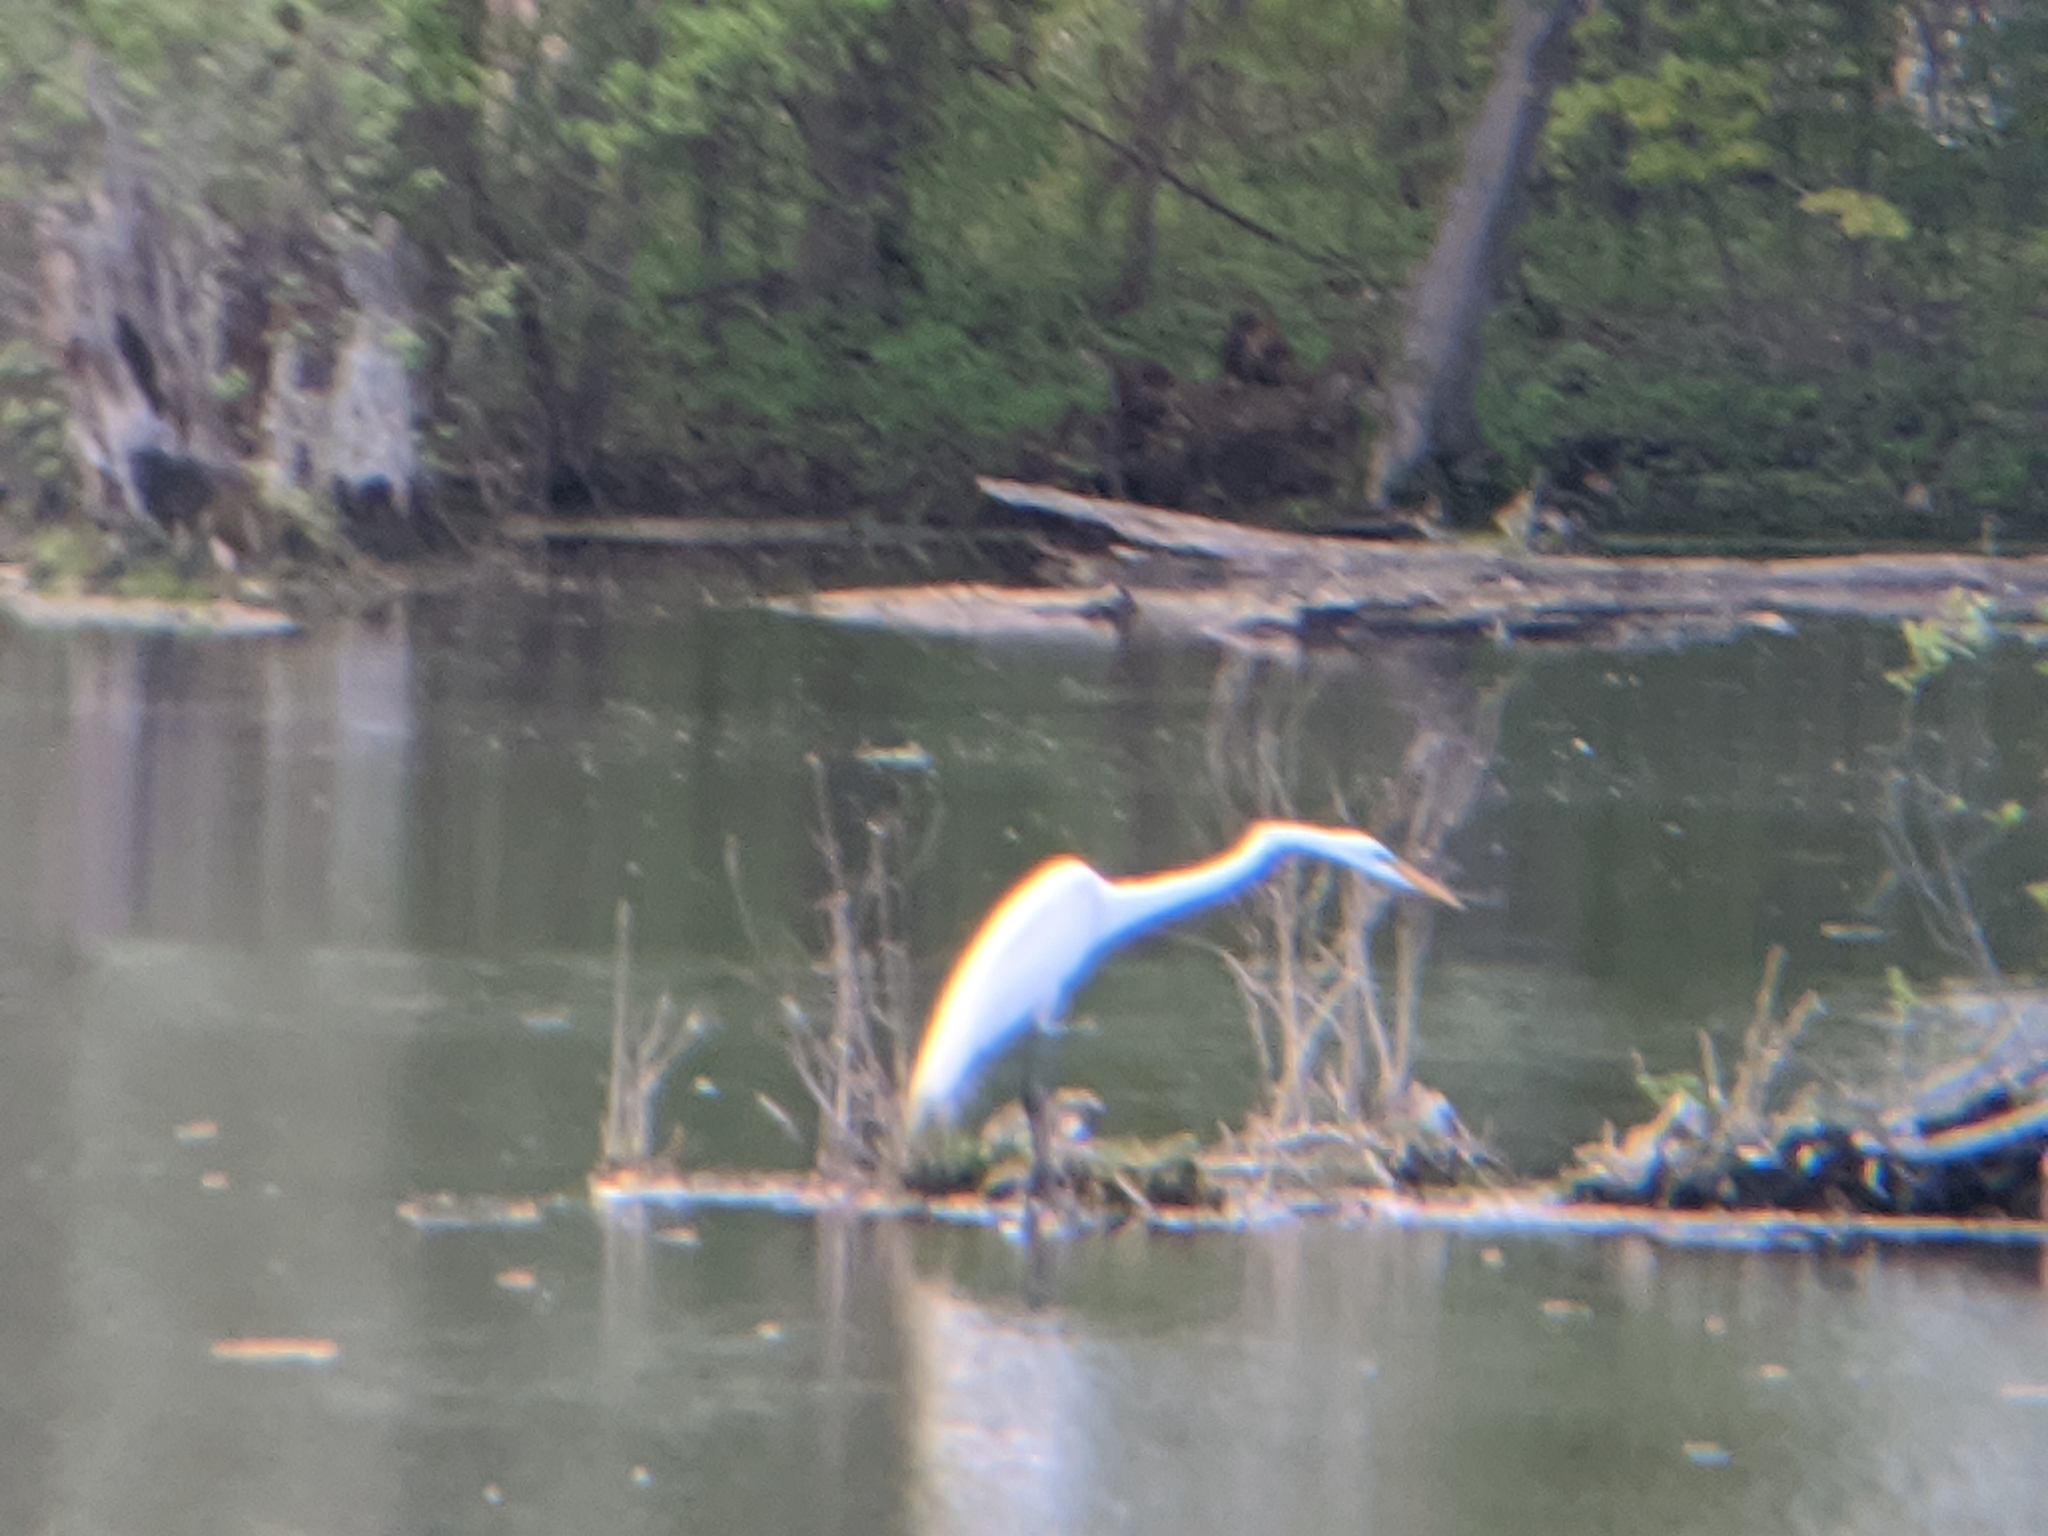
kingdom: Animalia
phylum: Chordata
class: Aves
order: Pelecaniformes
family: Ardeidae
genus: Ardea
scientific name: Ardea alba
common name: Great egret
